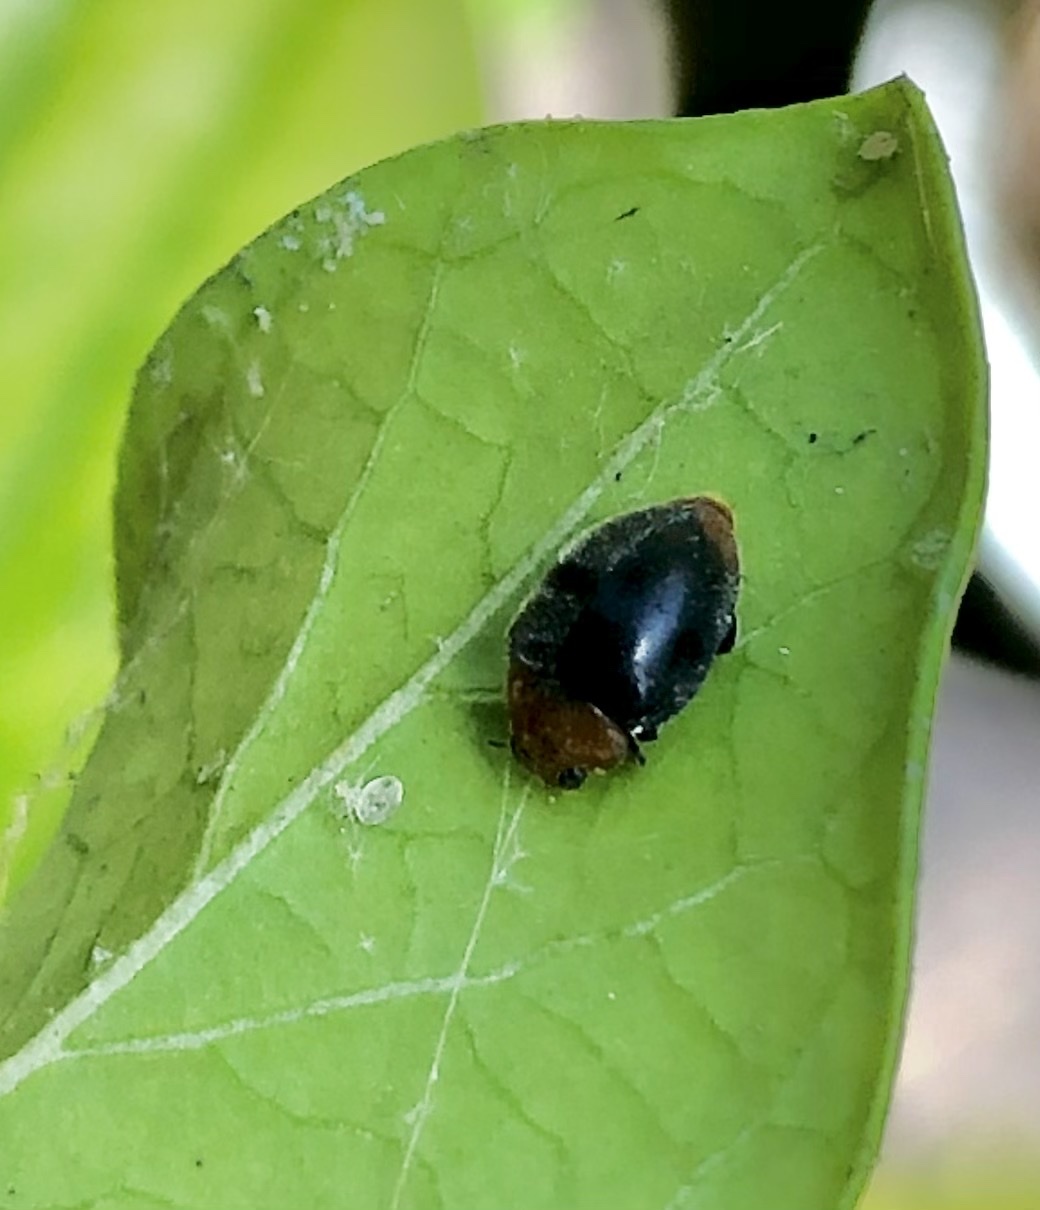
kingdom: Animalia
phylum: Arthropoda
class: Insecta
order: Coleoptera
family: Coccinellidae
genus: Cryptolaemus
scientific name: Cryptolaemus montrouzieri
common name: Mealybug destroyer
